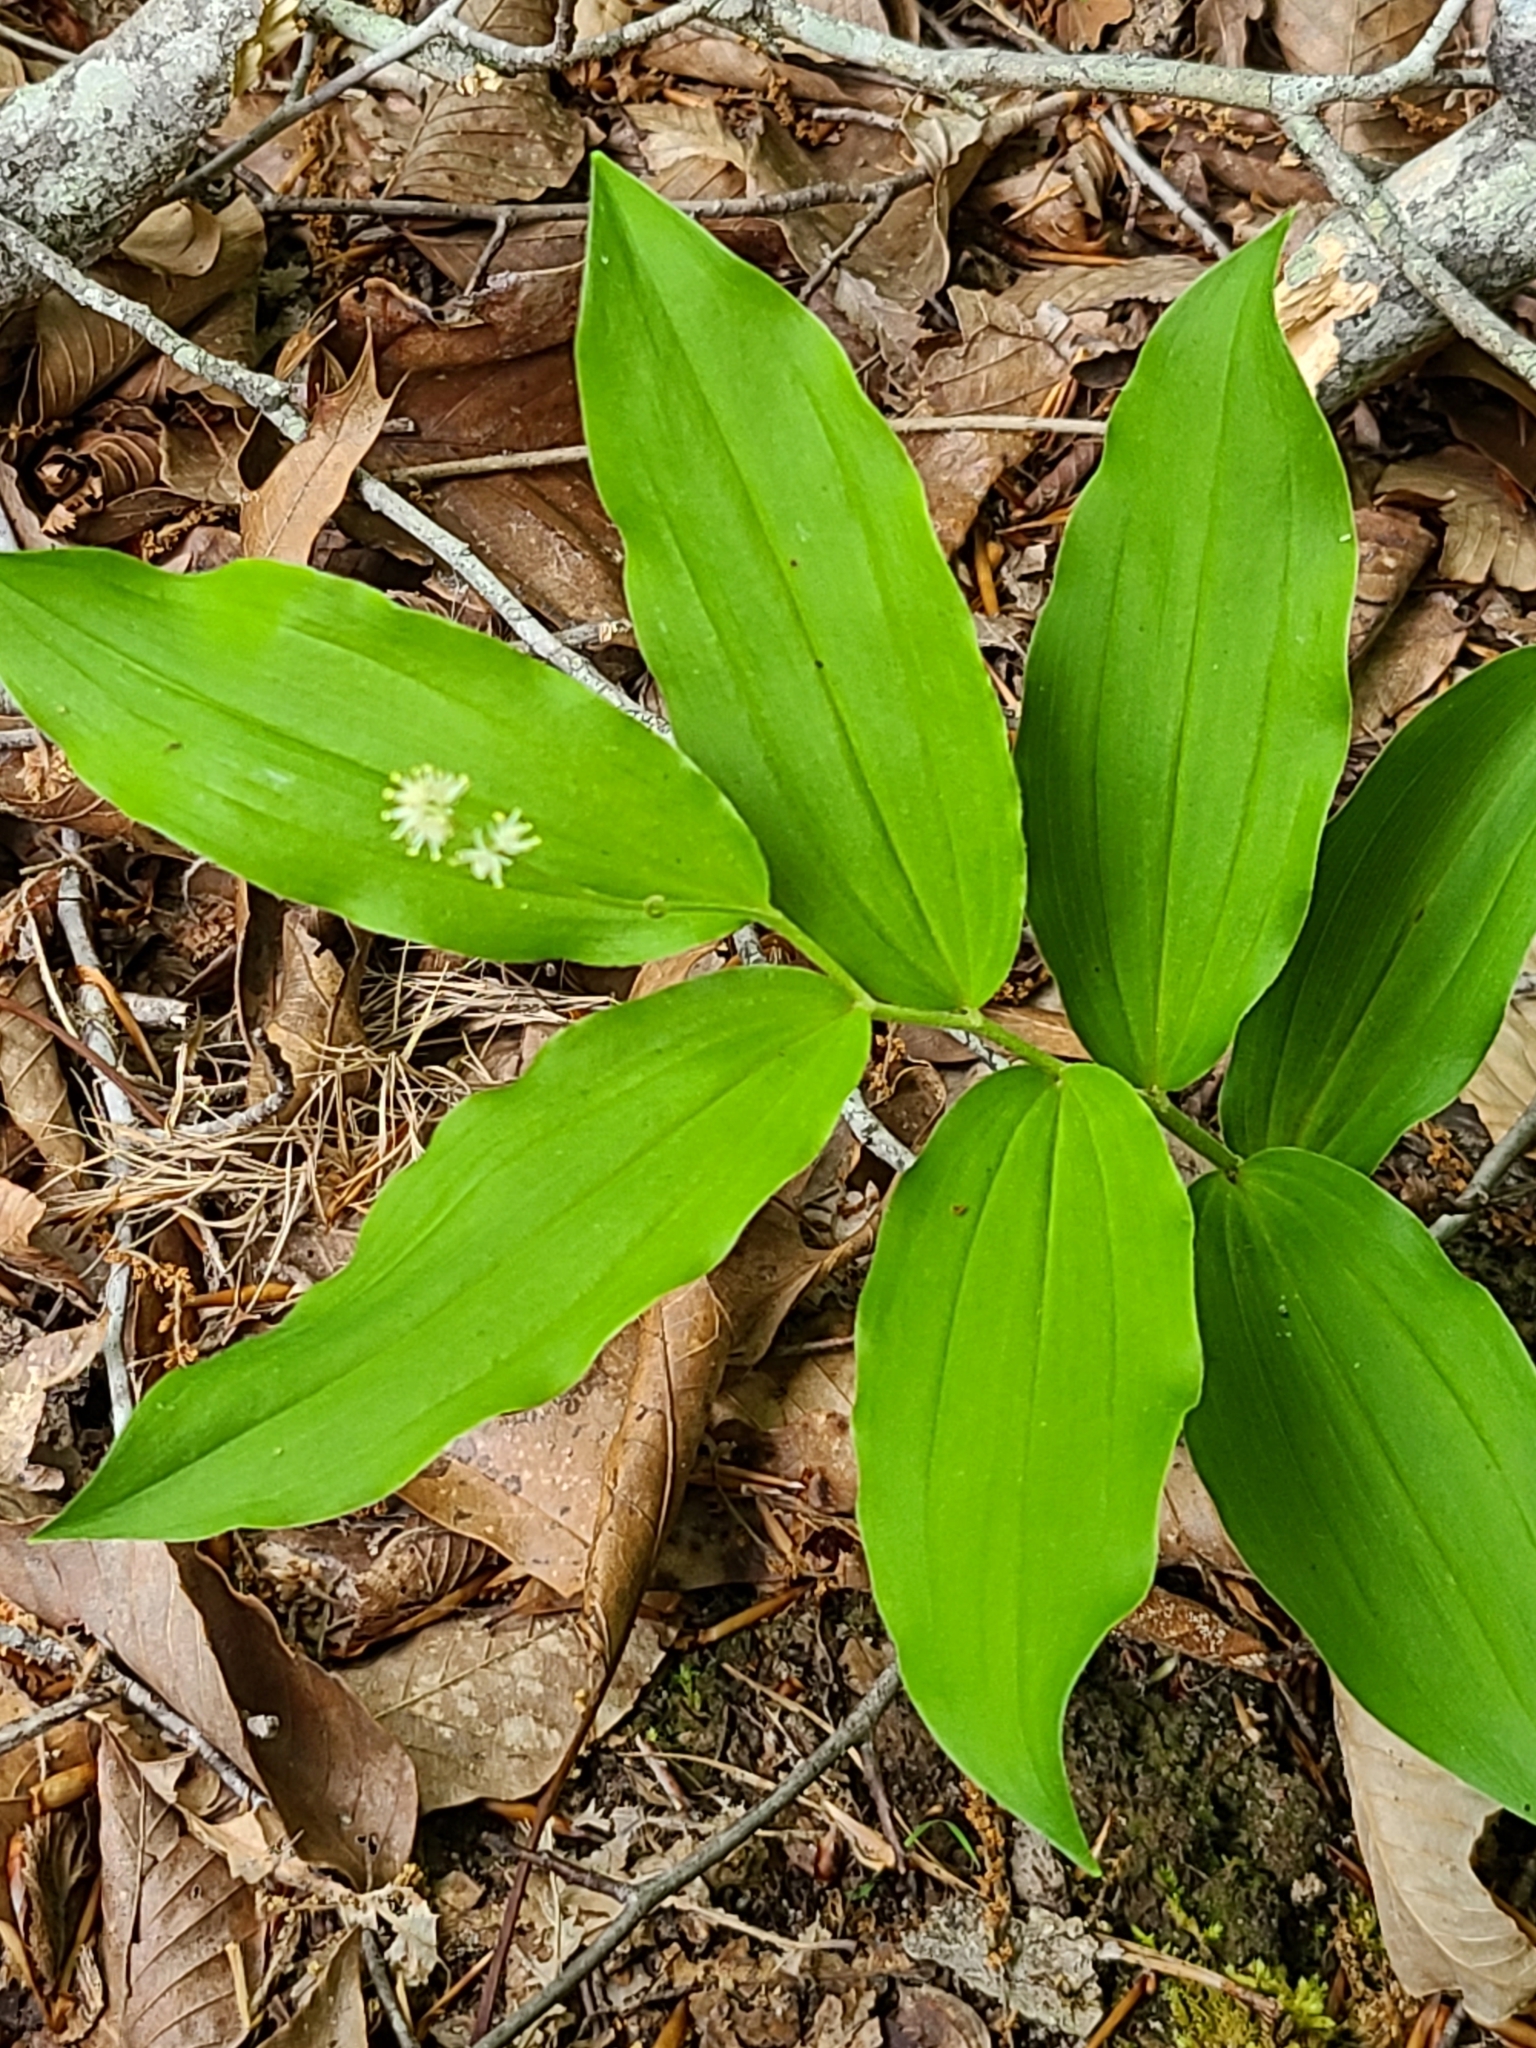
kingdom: Plantae
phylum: Tracheophyta
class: Liliopsida
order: Asparagales
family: Asparagaceae
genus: Maianthemum
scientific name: Maianthemum racemosum
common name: False spikenard
